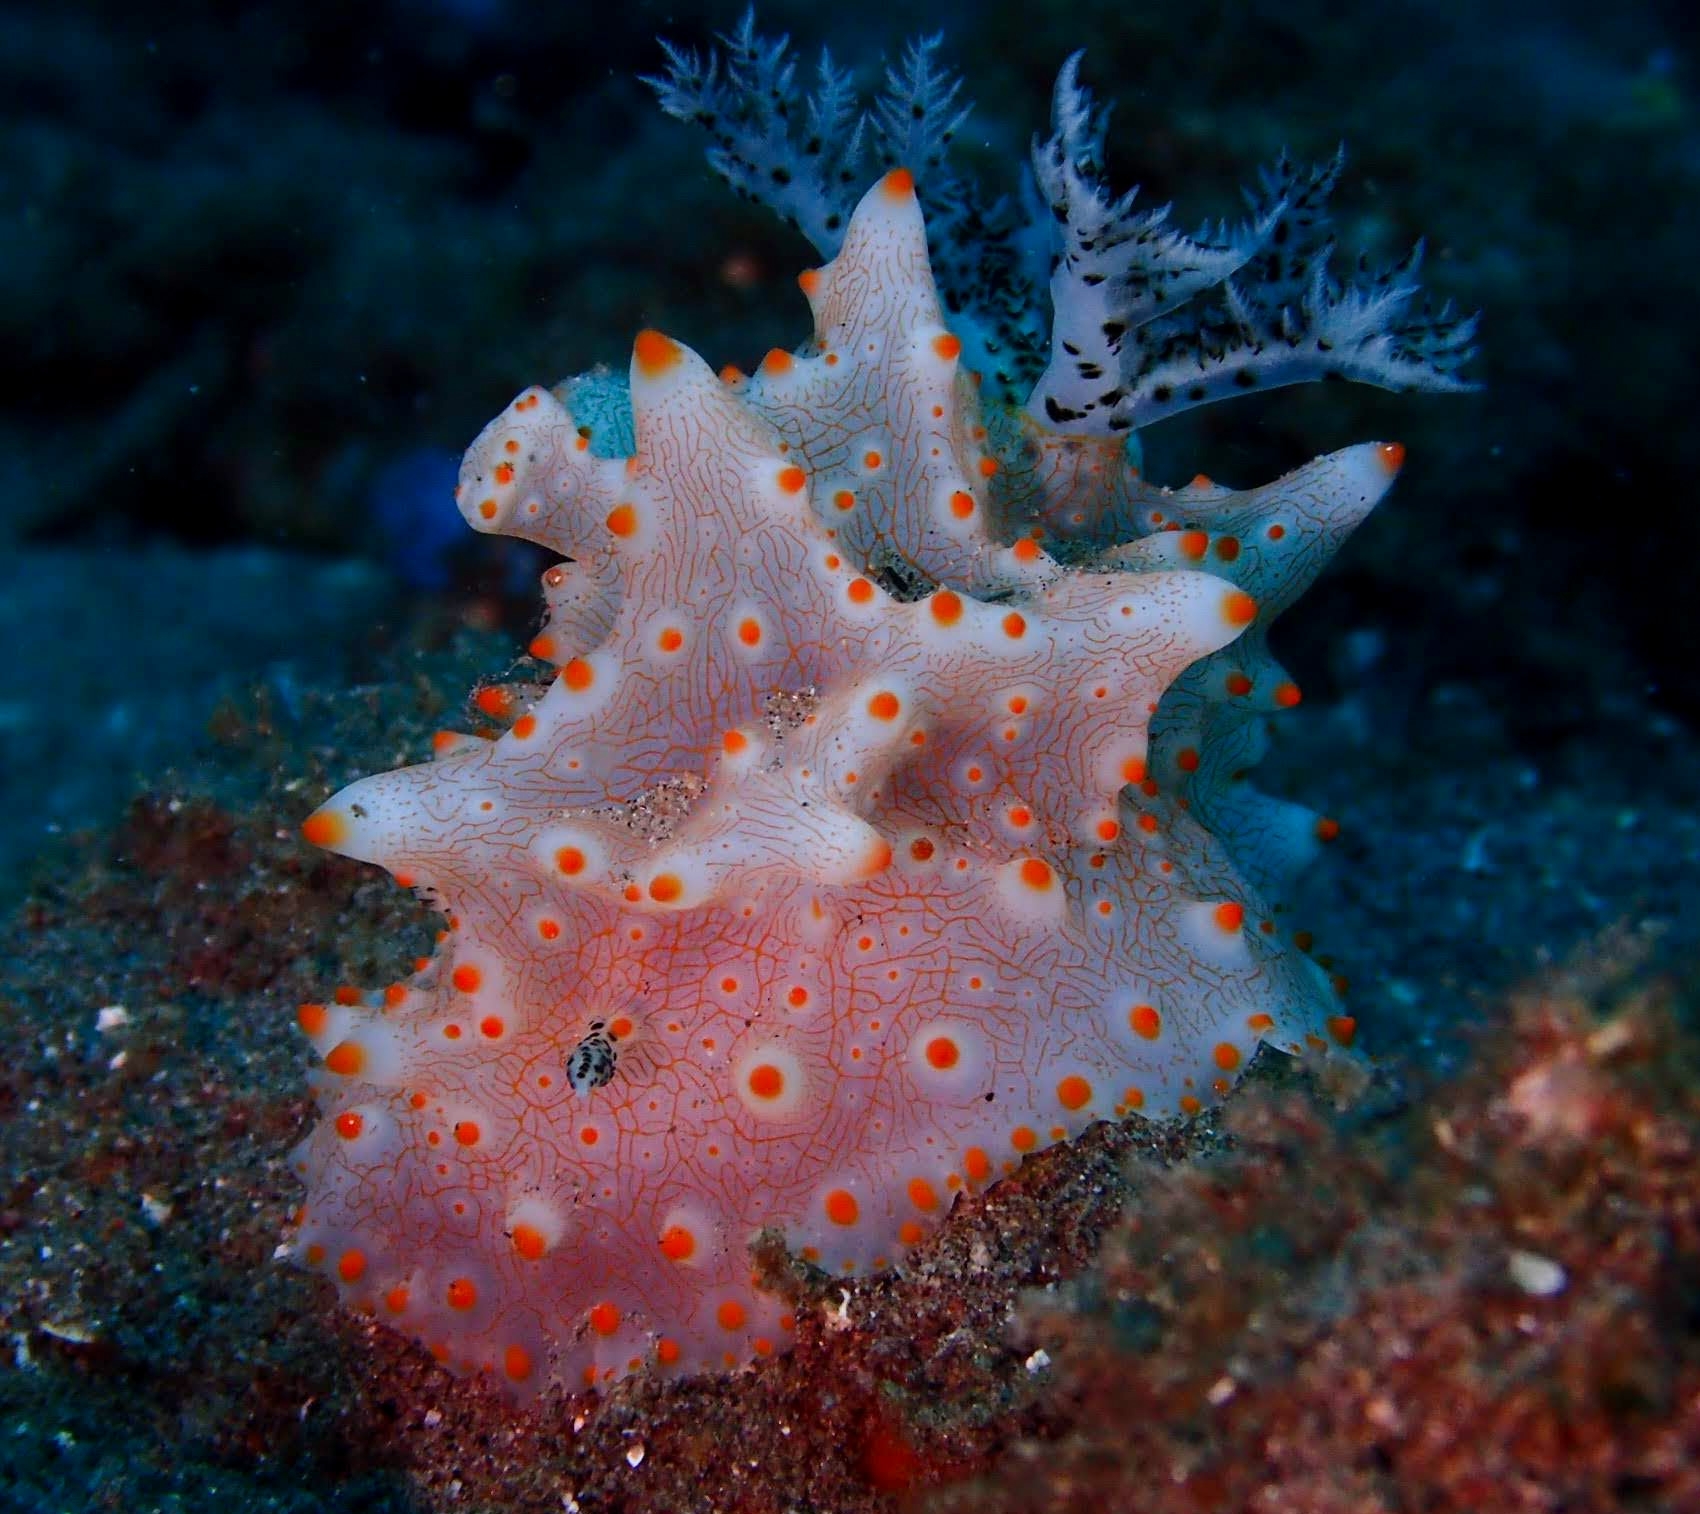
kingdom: Animalia
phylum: Mollusca
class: Gastropoda
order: Nudibranchia
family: Discodorididae
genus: Halgerda
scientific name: Halgerda batangas
